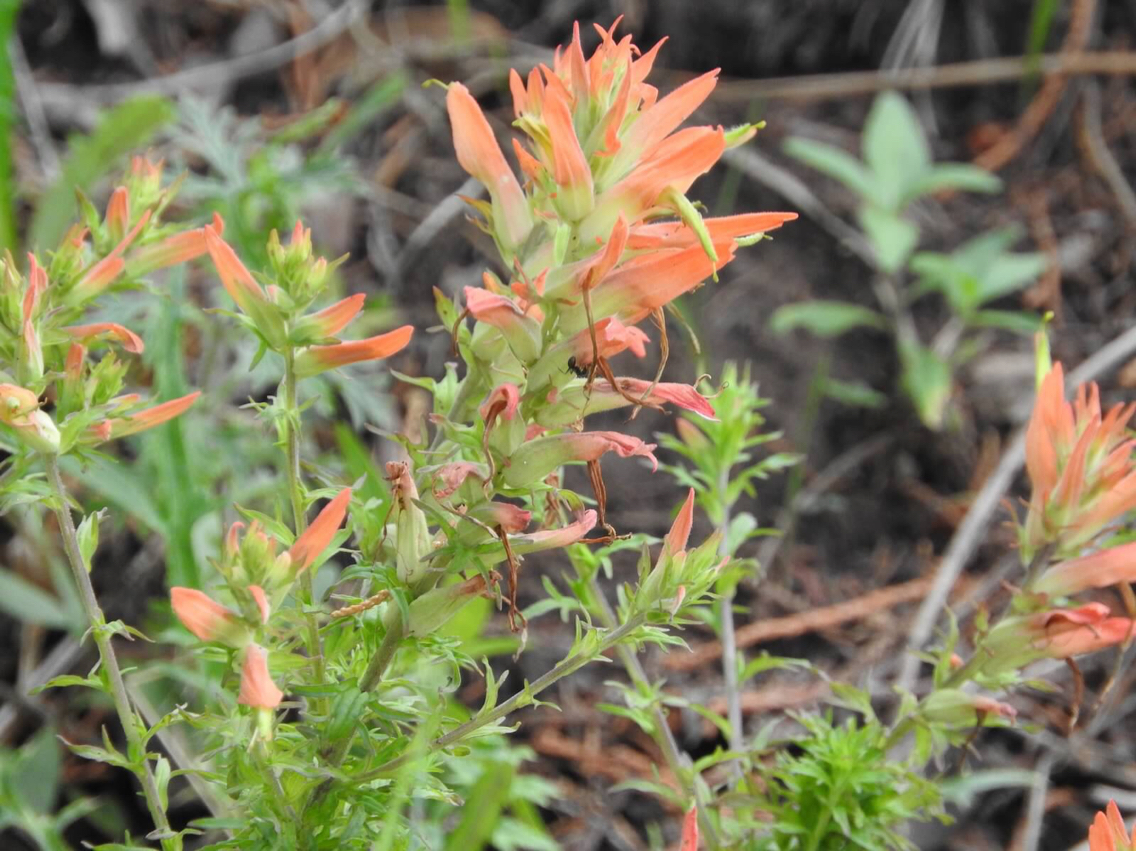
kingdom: Plantae
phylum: Tracheophyta
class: Magnoliopsida
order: Lamiales
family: Orobanchaceae
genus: Castilleja
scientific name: Castilleja patriotica
